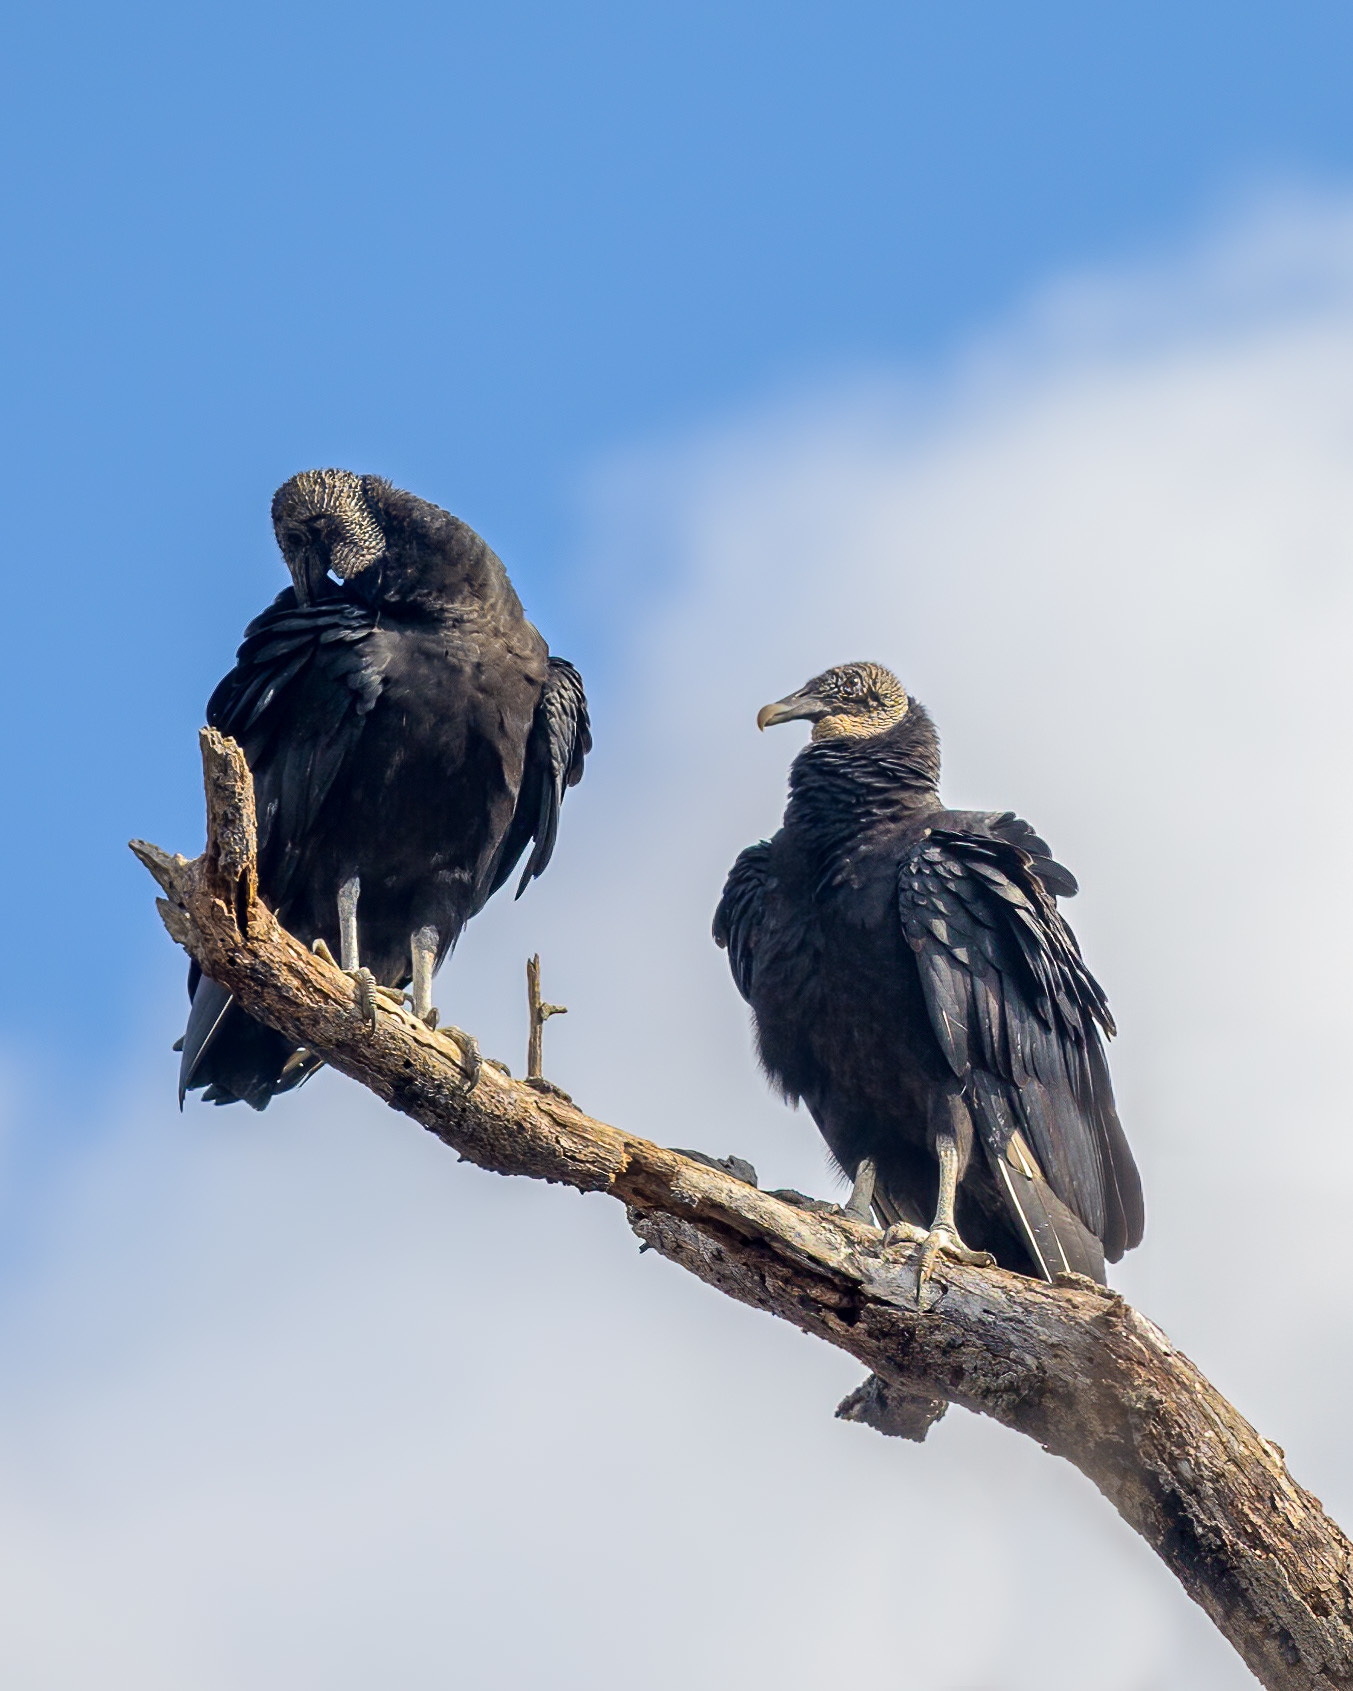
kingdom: Animalia
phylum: Chordata
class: Aves
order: Accipitriformes
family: Cathartidae
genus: Coragyps
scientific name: Coragyps atratus
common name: Black vulture
